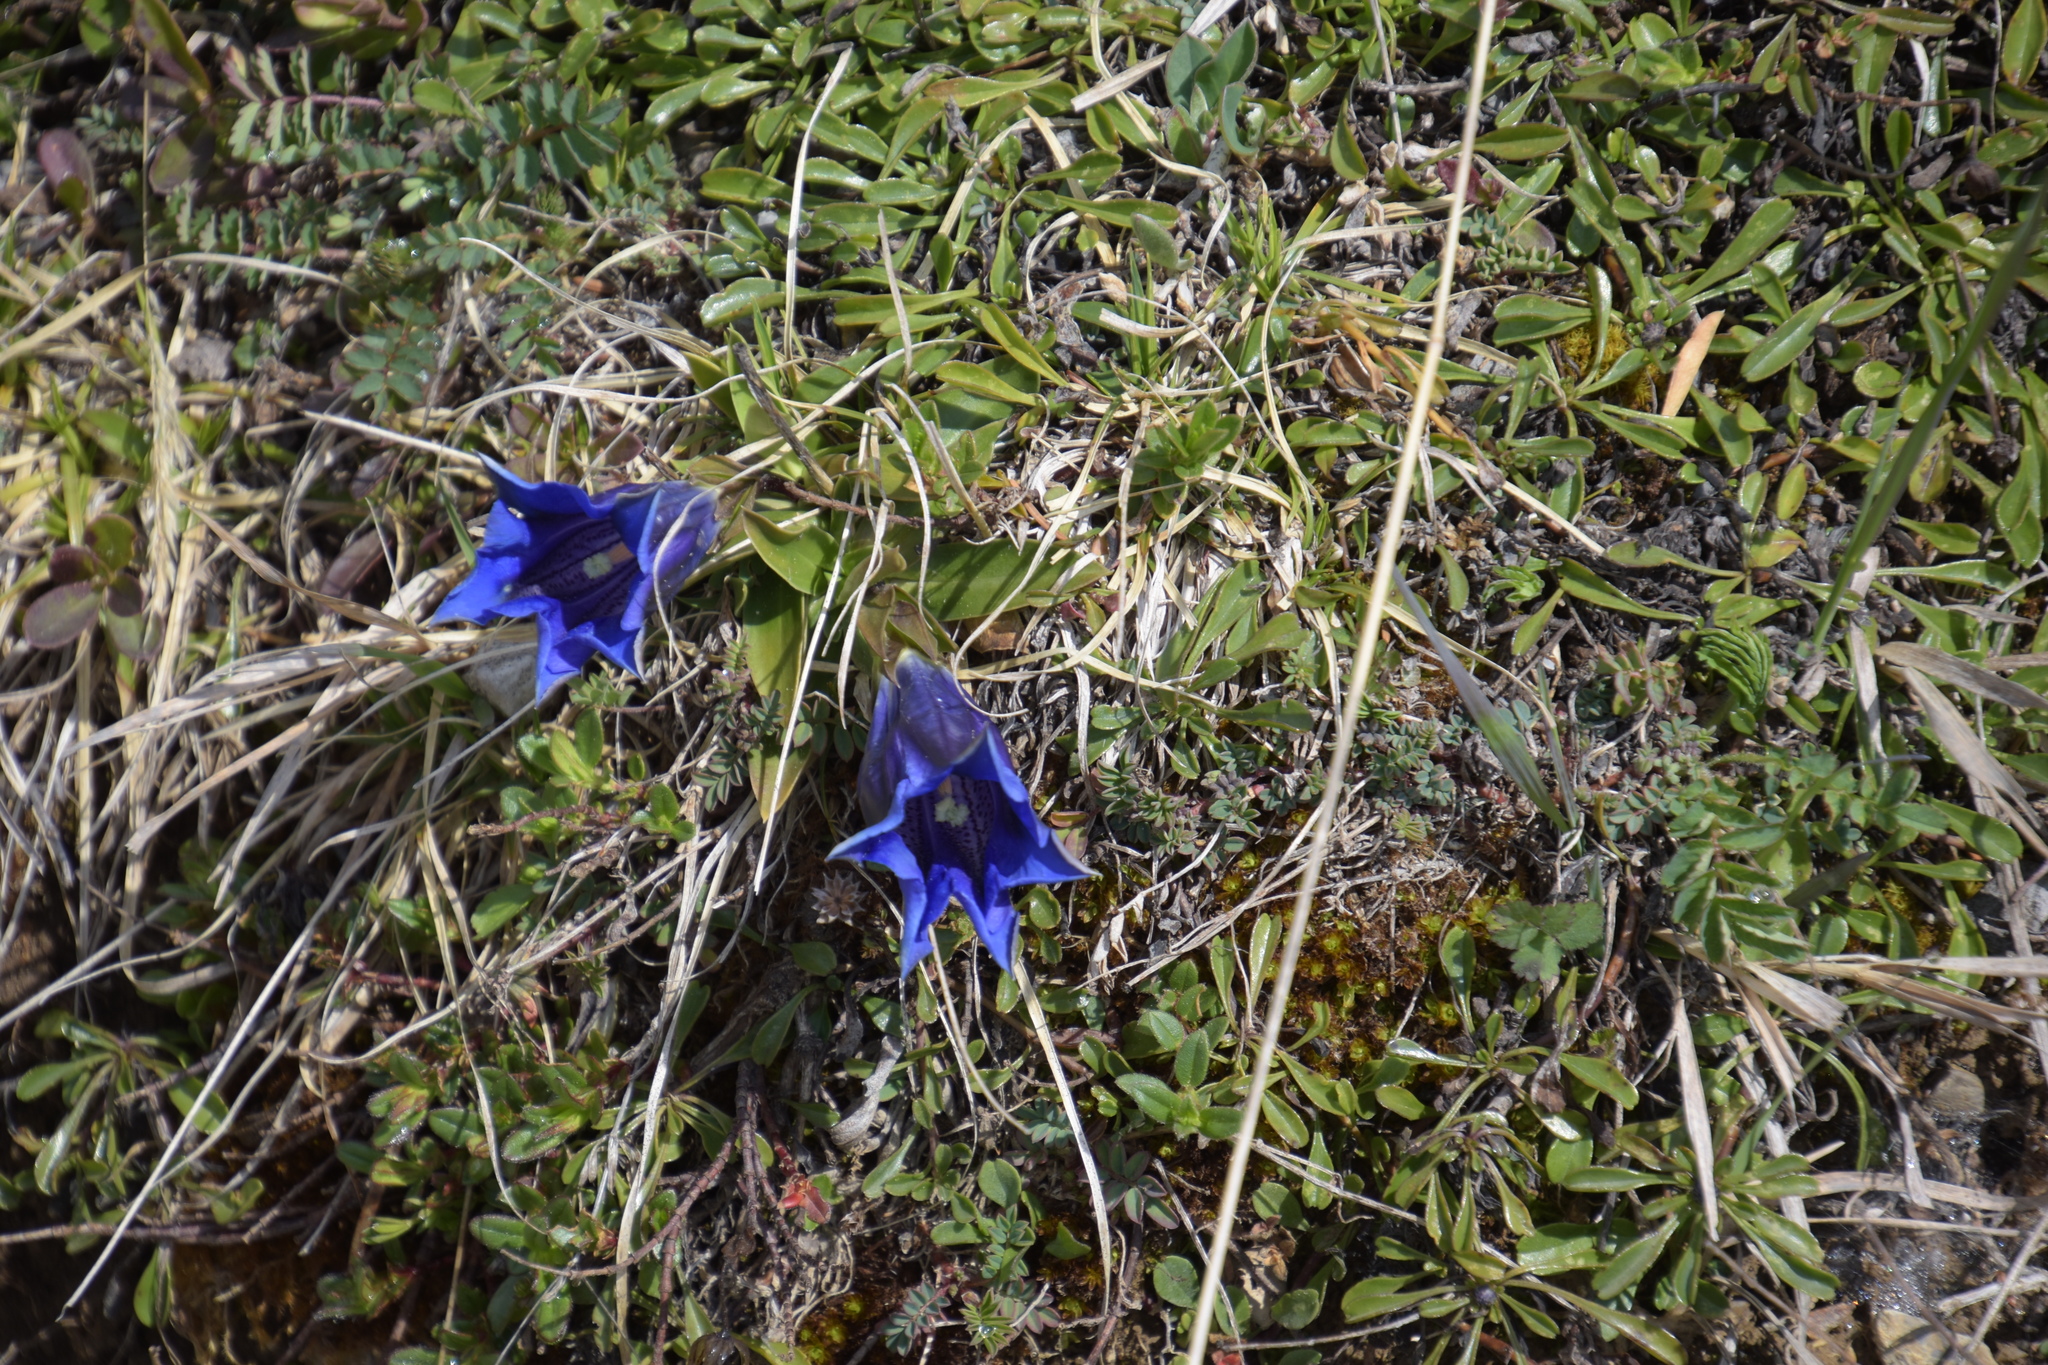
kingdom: Plantae
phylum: Tracheophyta
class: Magnoliopsida
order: Gentianales
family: Gentianaceae
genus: Gentiana
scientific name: Gentiana clusii
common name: Trumpet gentian
